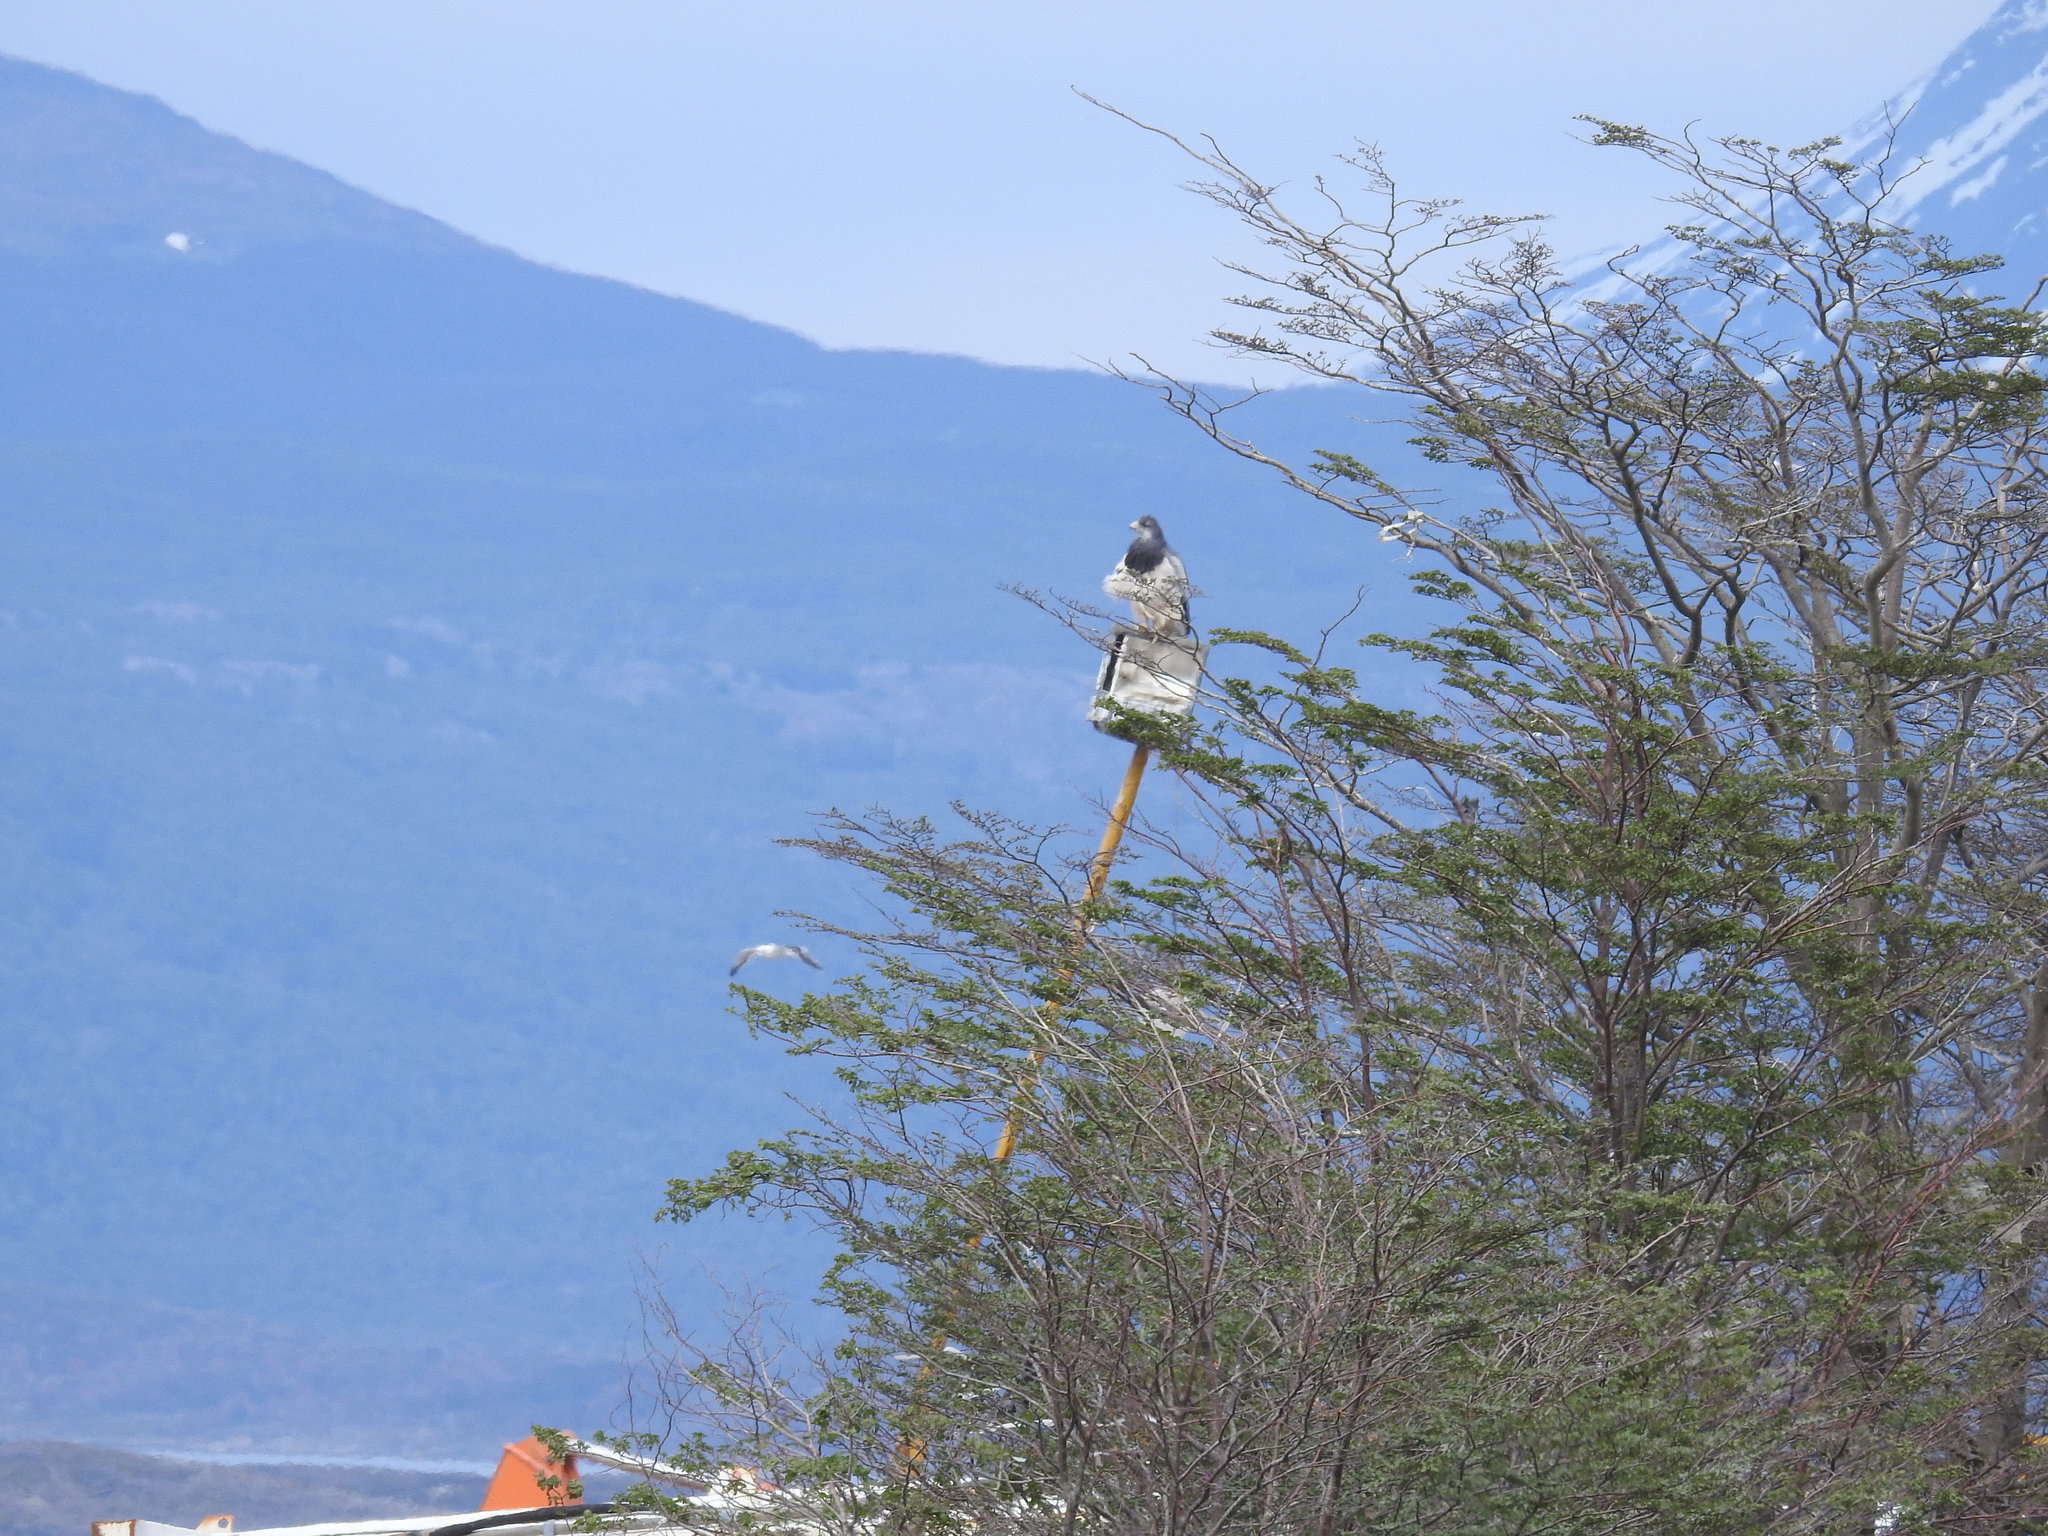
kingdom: Animalia
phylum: Chordata
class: Aves
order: Accipitriformes
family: Accipitridae
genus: Geranoaetus
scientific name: Geranoaetus melanoleucus
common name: Black-chested buzzard-eagle
